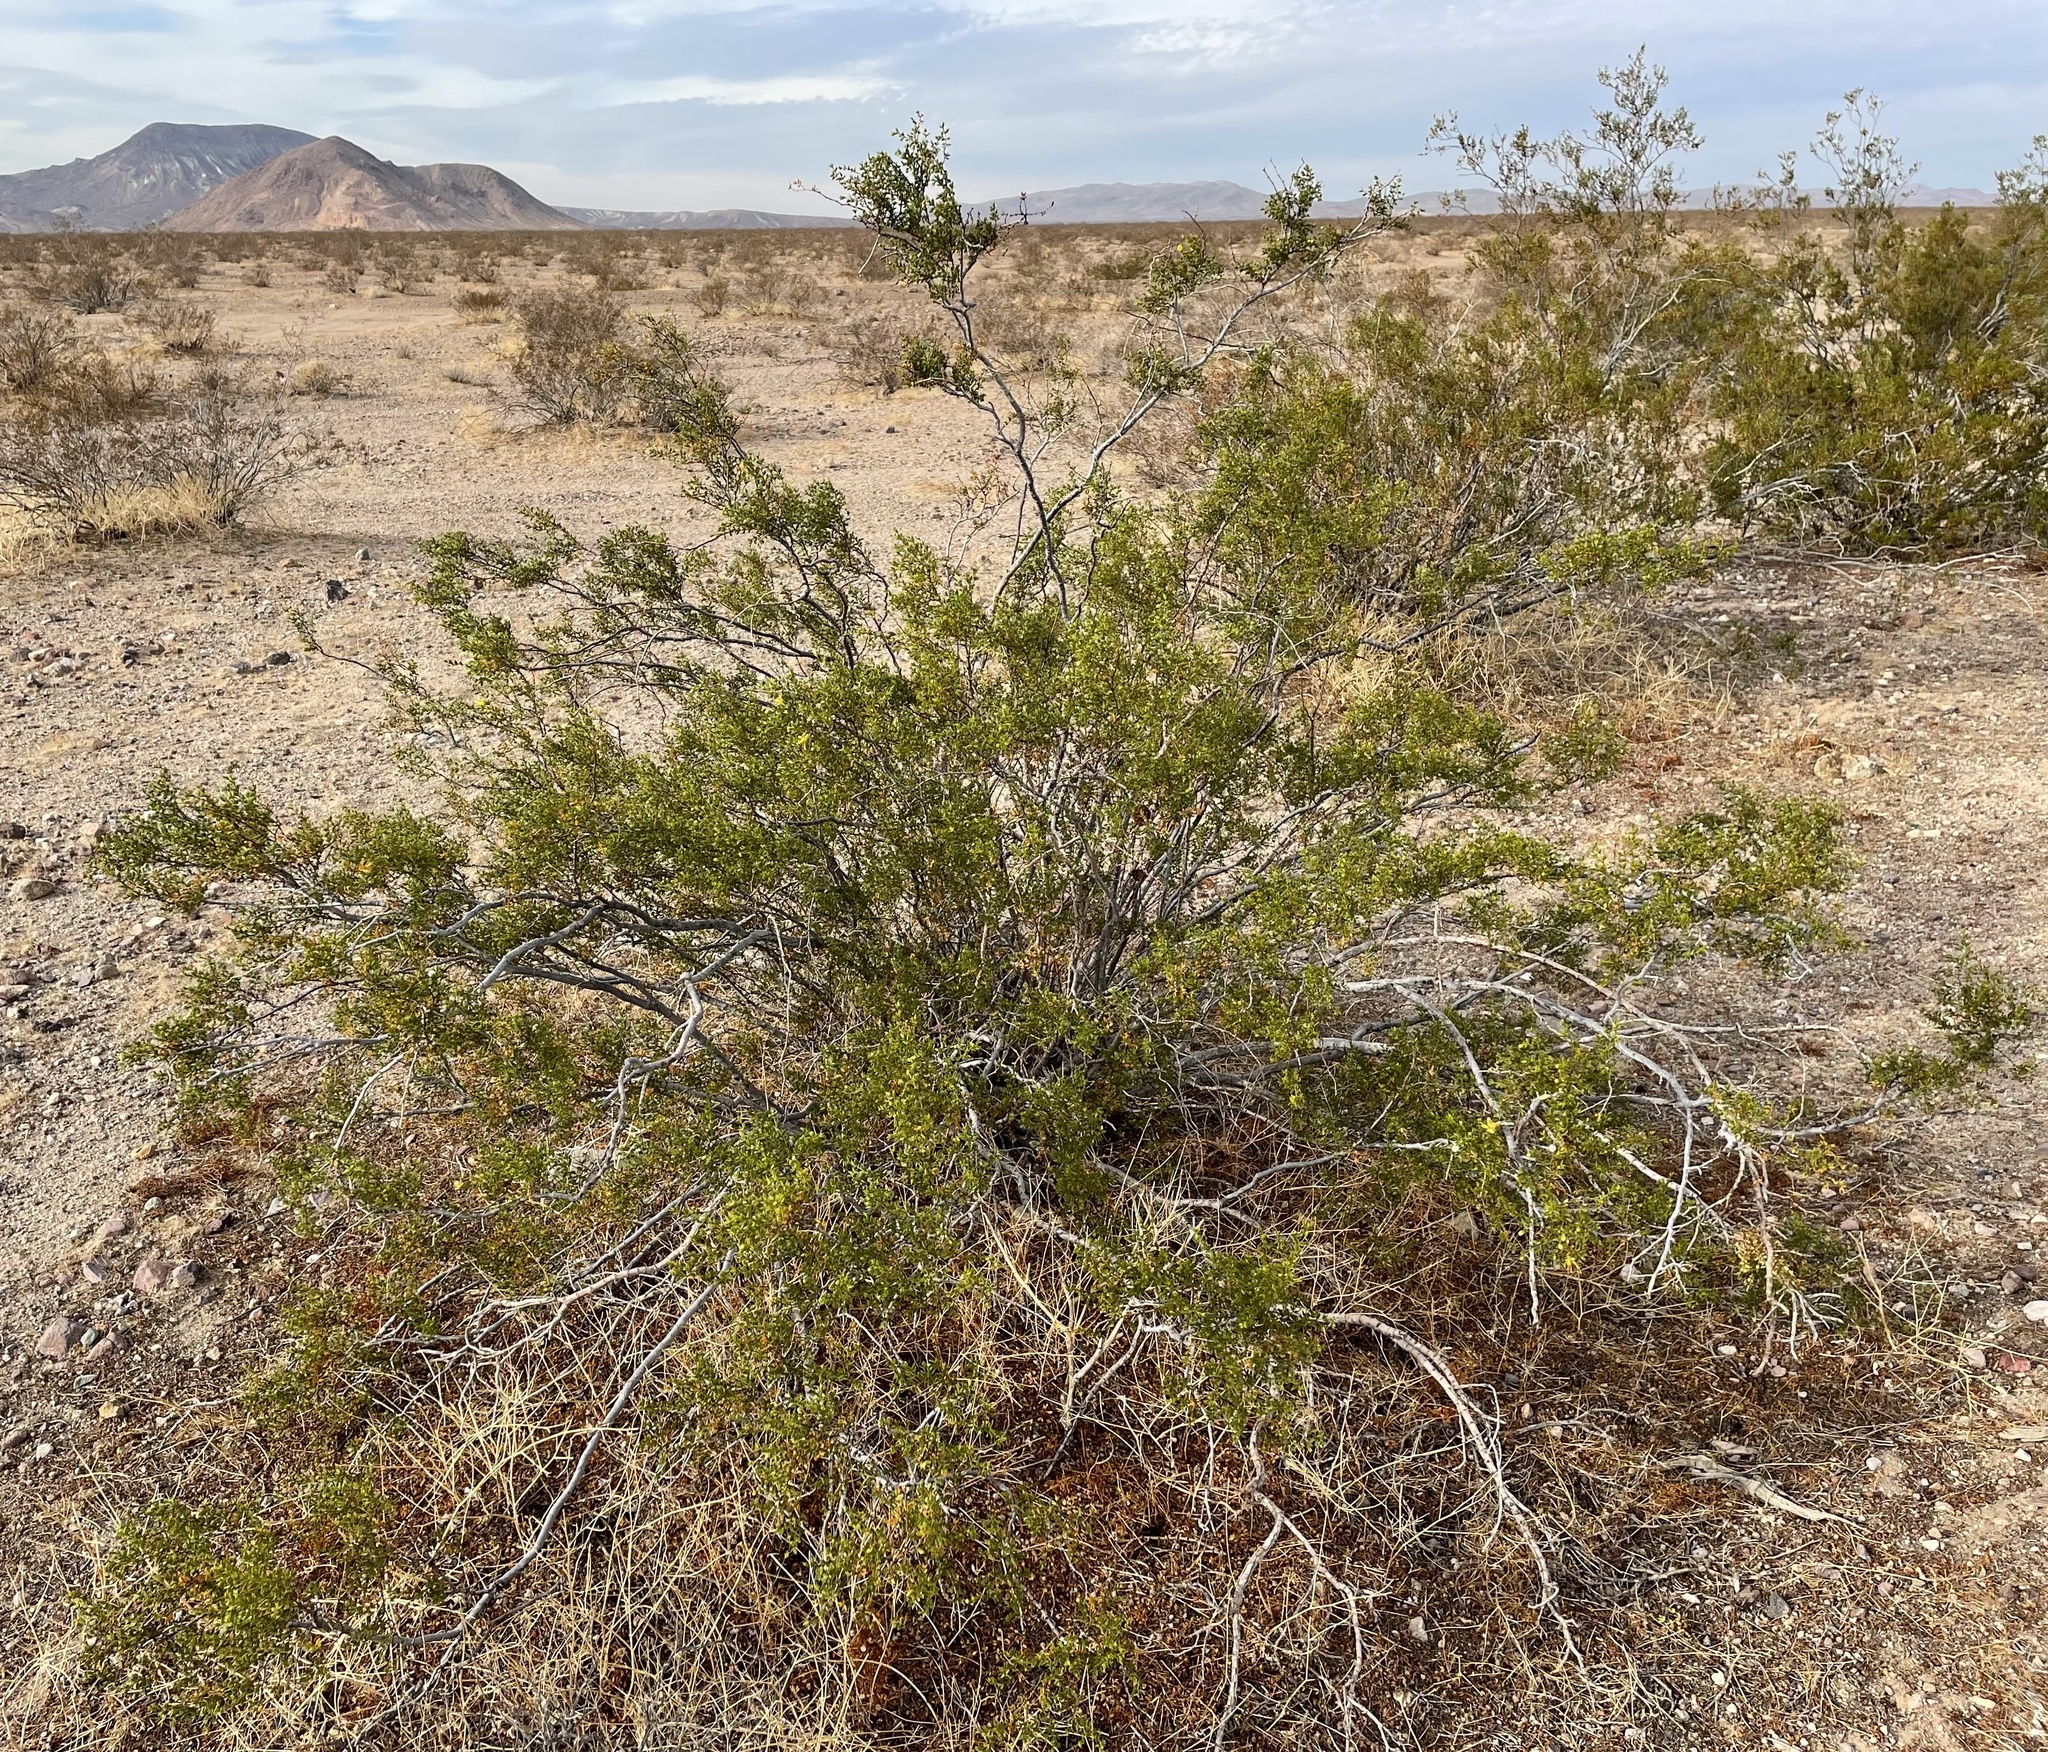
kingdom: Animalia
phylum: Arthropoda
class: Insecta
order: Diptera
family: Cecidomyiidae
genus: Asphondylia
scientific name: Asphondylia auripila
